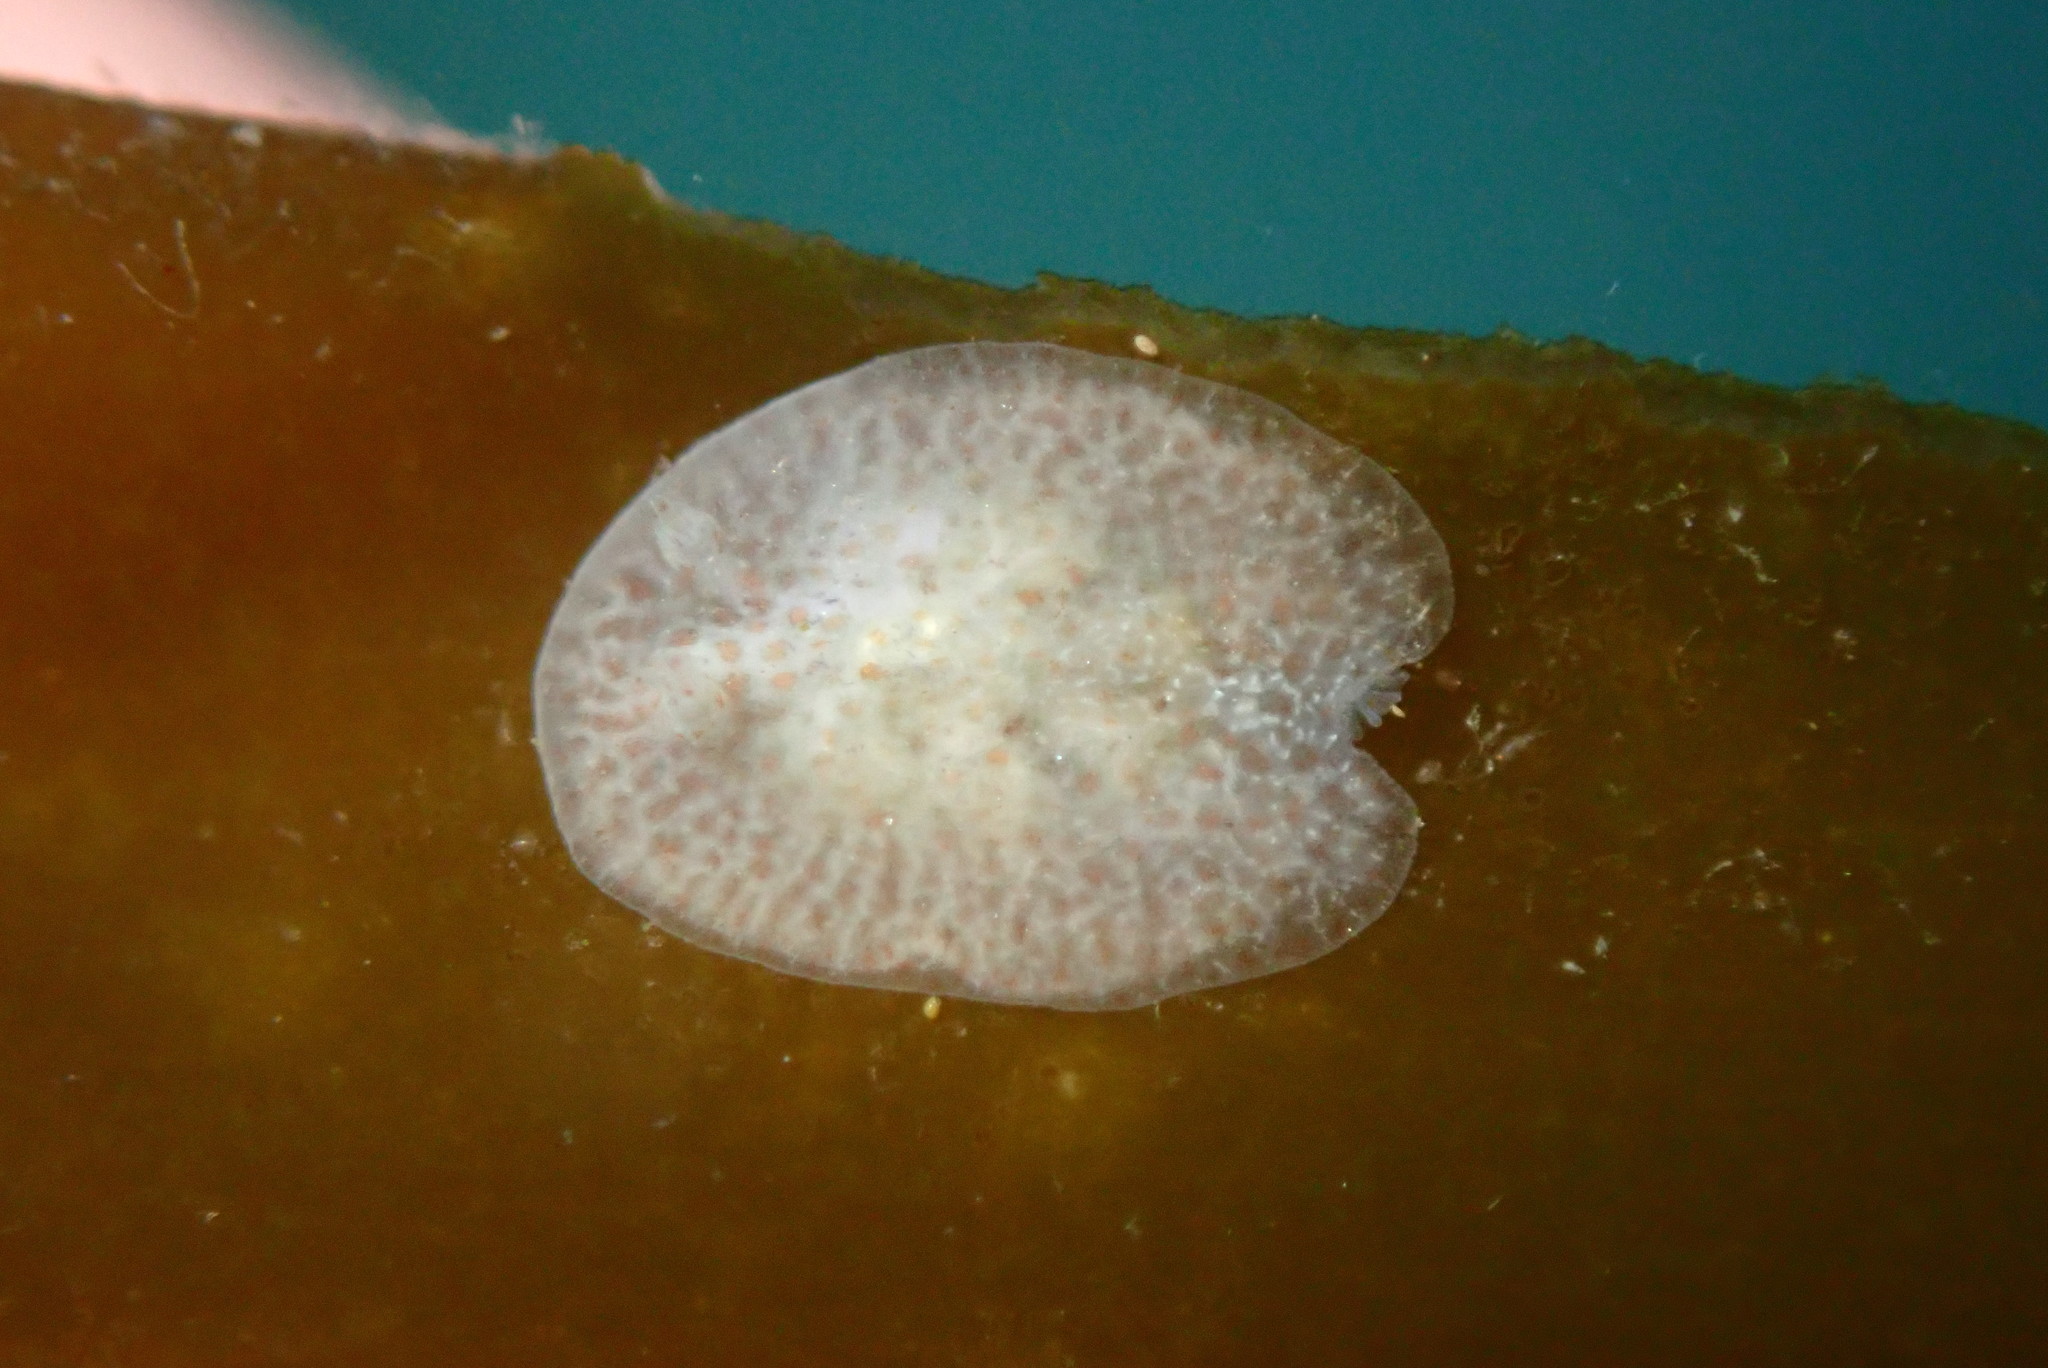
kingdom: Animalia
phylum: Mollusca
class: Gastropoda
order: Nudibranchia
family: Corambidae
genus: Corambe
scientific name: Corambe pacifica
